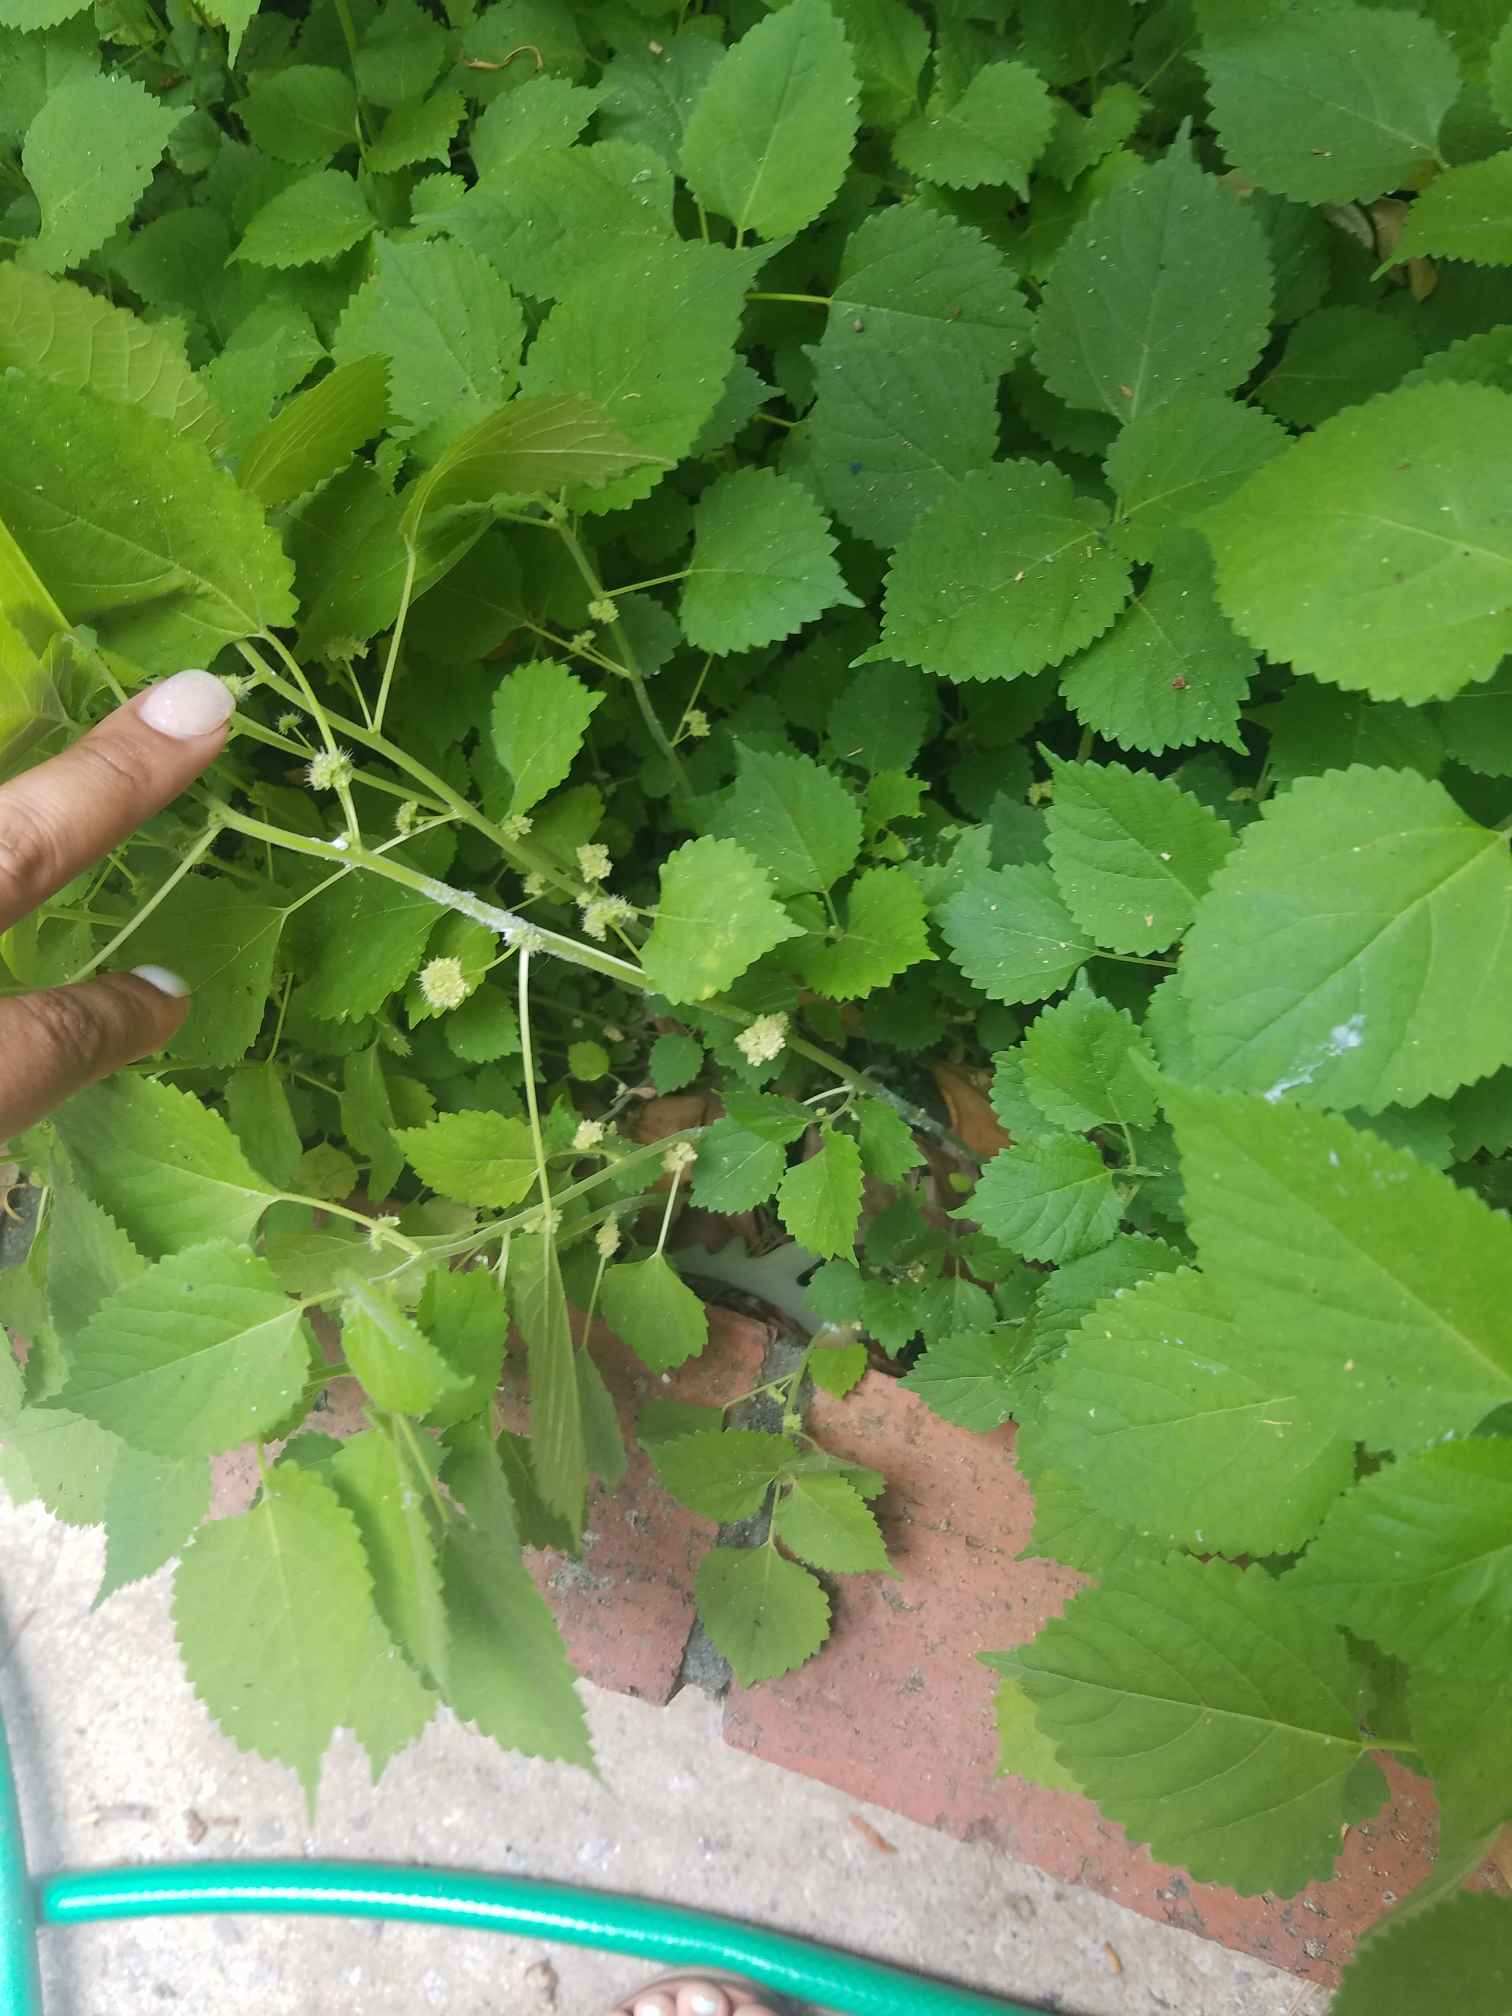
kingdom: Plantae
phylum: Tracheophyta
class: Magnoliopsida
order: Rosales
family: Moraceae
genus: Fatoua
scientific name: Fatoua villosa
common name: Hairy crabweed
